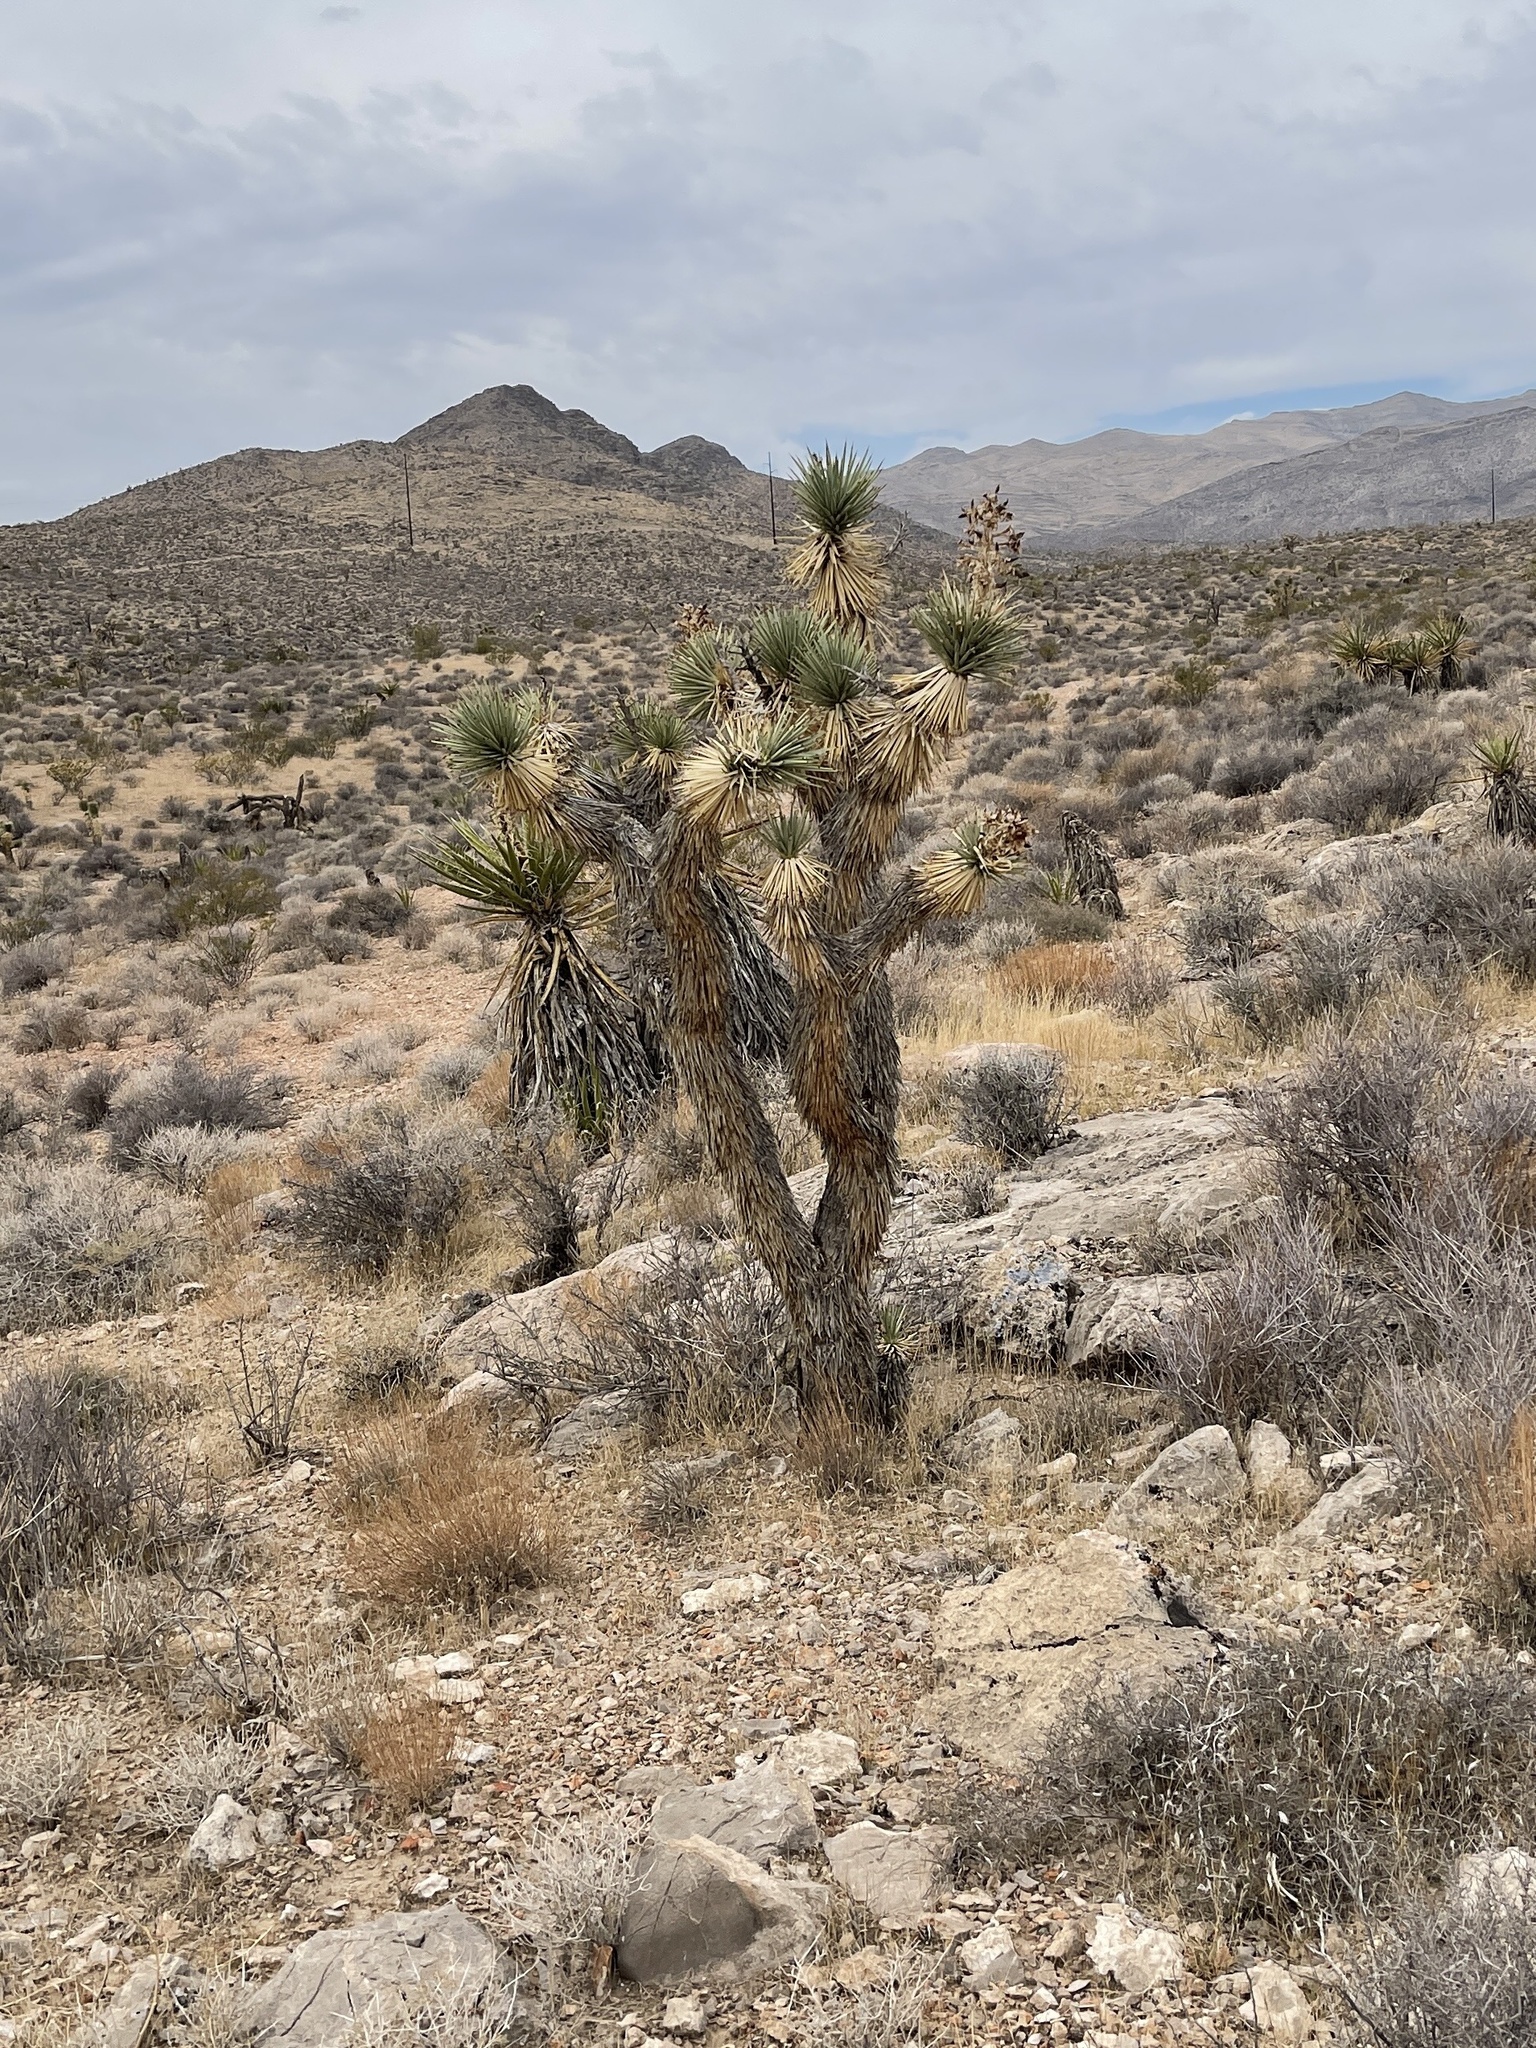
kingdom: Plantae
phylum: Tracheophyta
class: Liliopsida
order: Asparagales
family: Asparagaceae
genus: Yucca
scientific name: Yucca brevifolia
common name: Joshua tree
